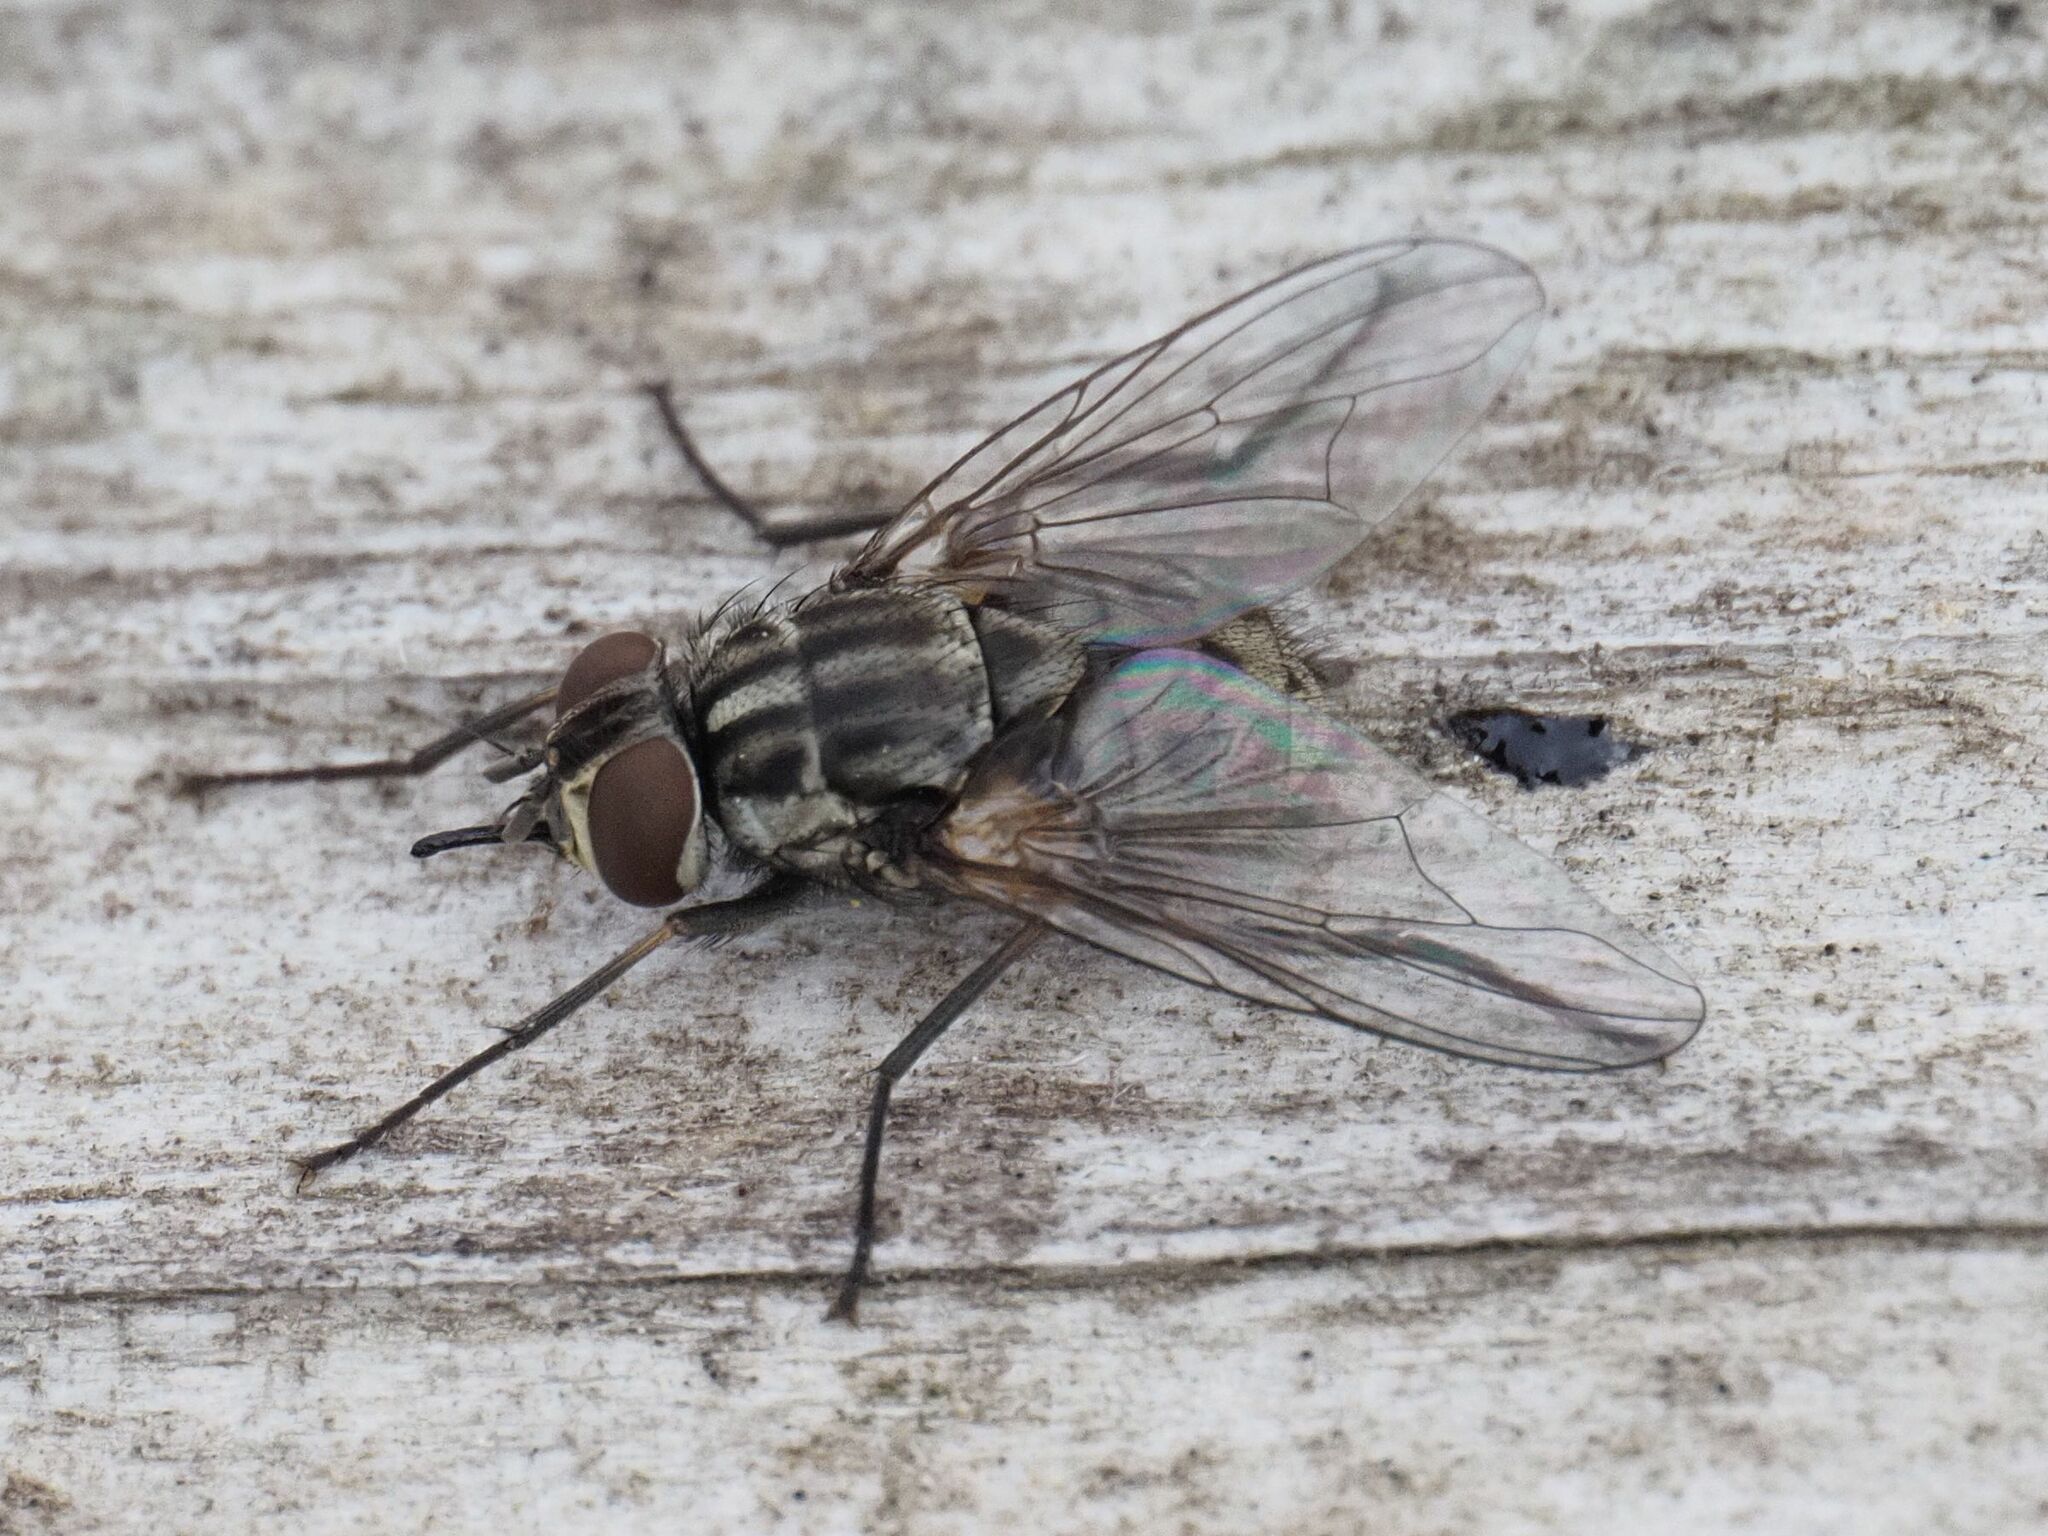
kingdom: Animalia
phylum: Arthropoda
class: Insecta
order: Diptera
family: Muscidae
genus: Stomoxys
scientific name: Stomoxys calcitrans
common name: Stable fly
